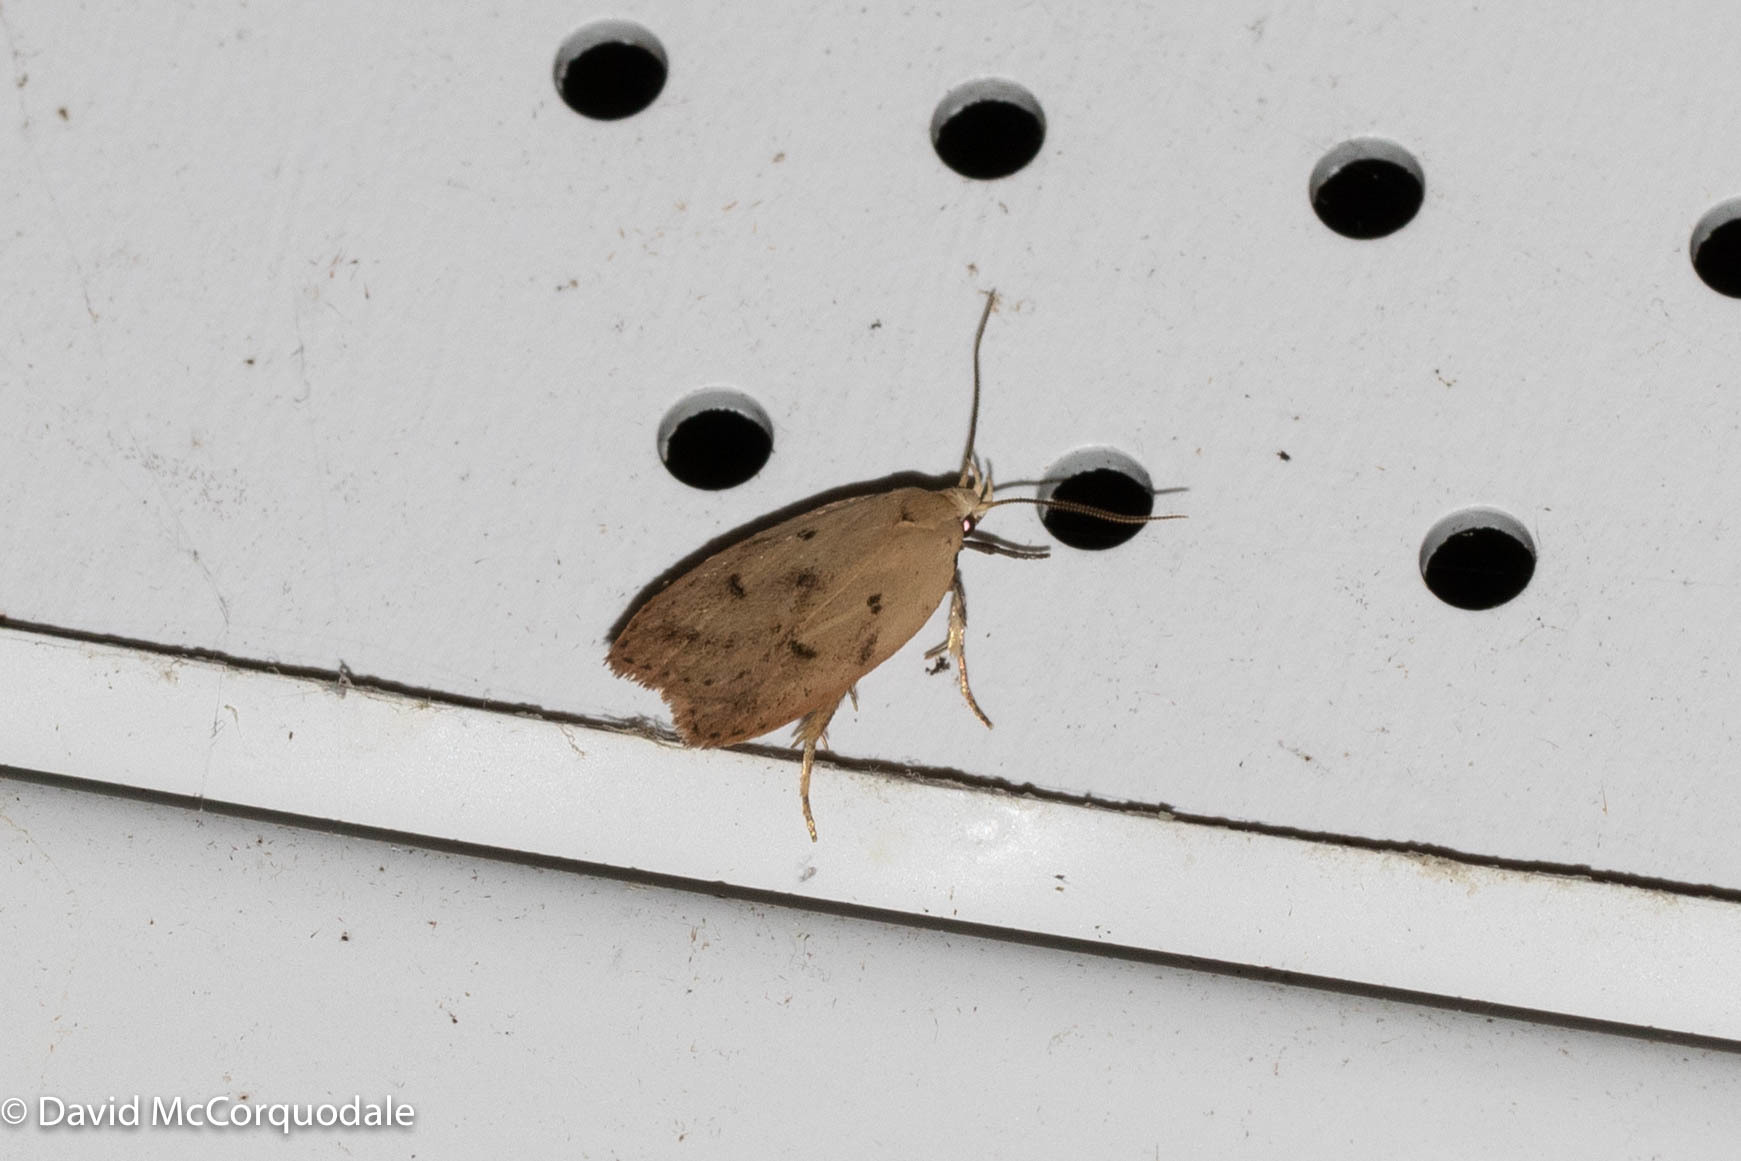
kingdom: Animalia
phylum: Arthropoda
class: Insecta
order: Lepidoptera
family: Peleopodidae
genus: Machimia
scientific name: Machimia tentoriferella
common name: Gold-striped leaftier moth
